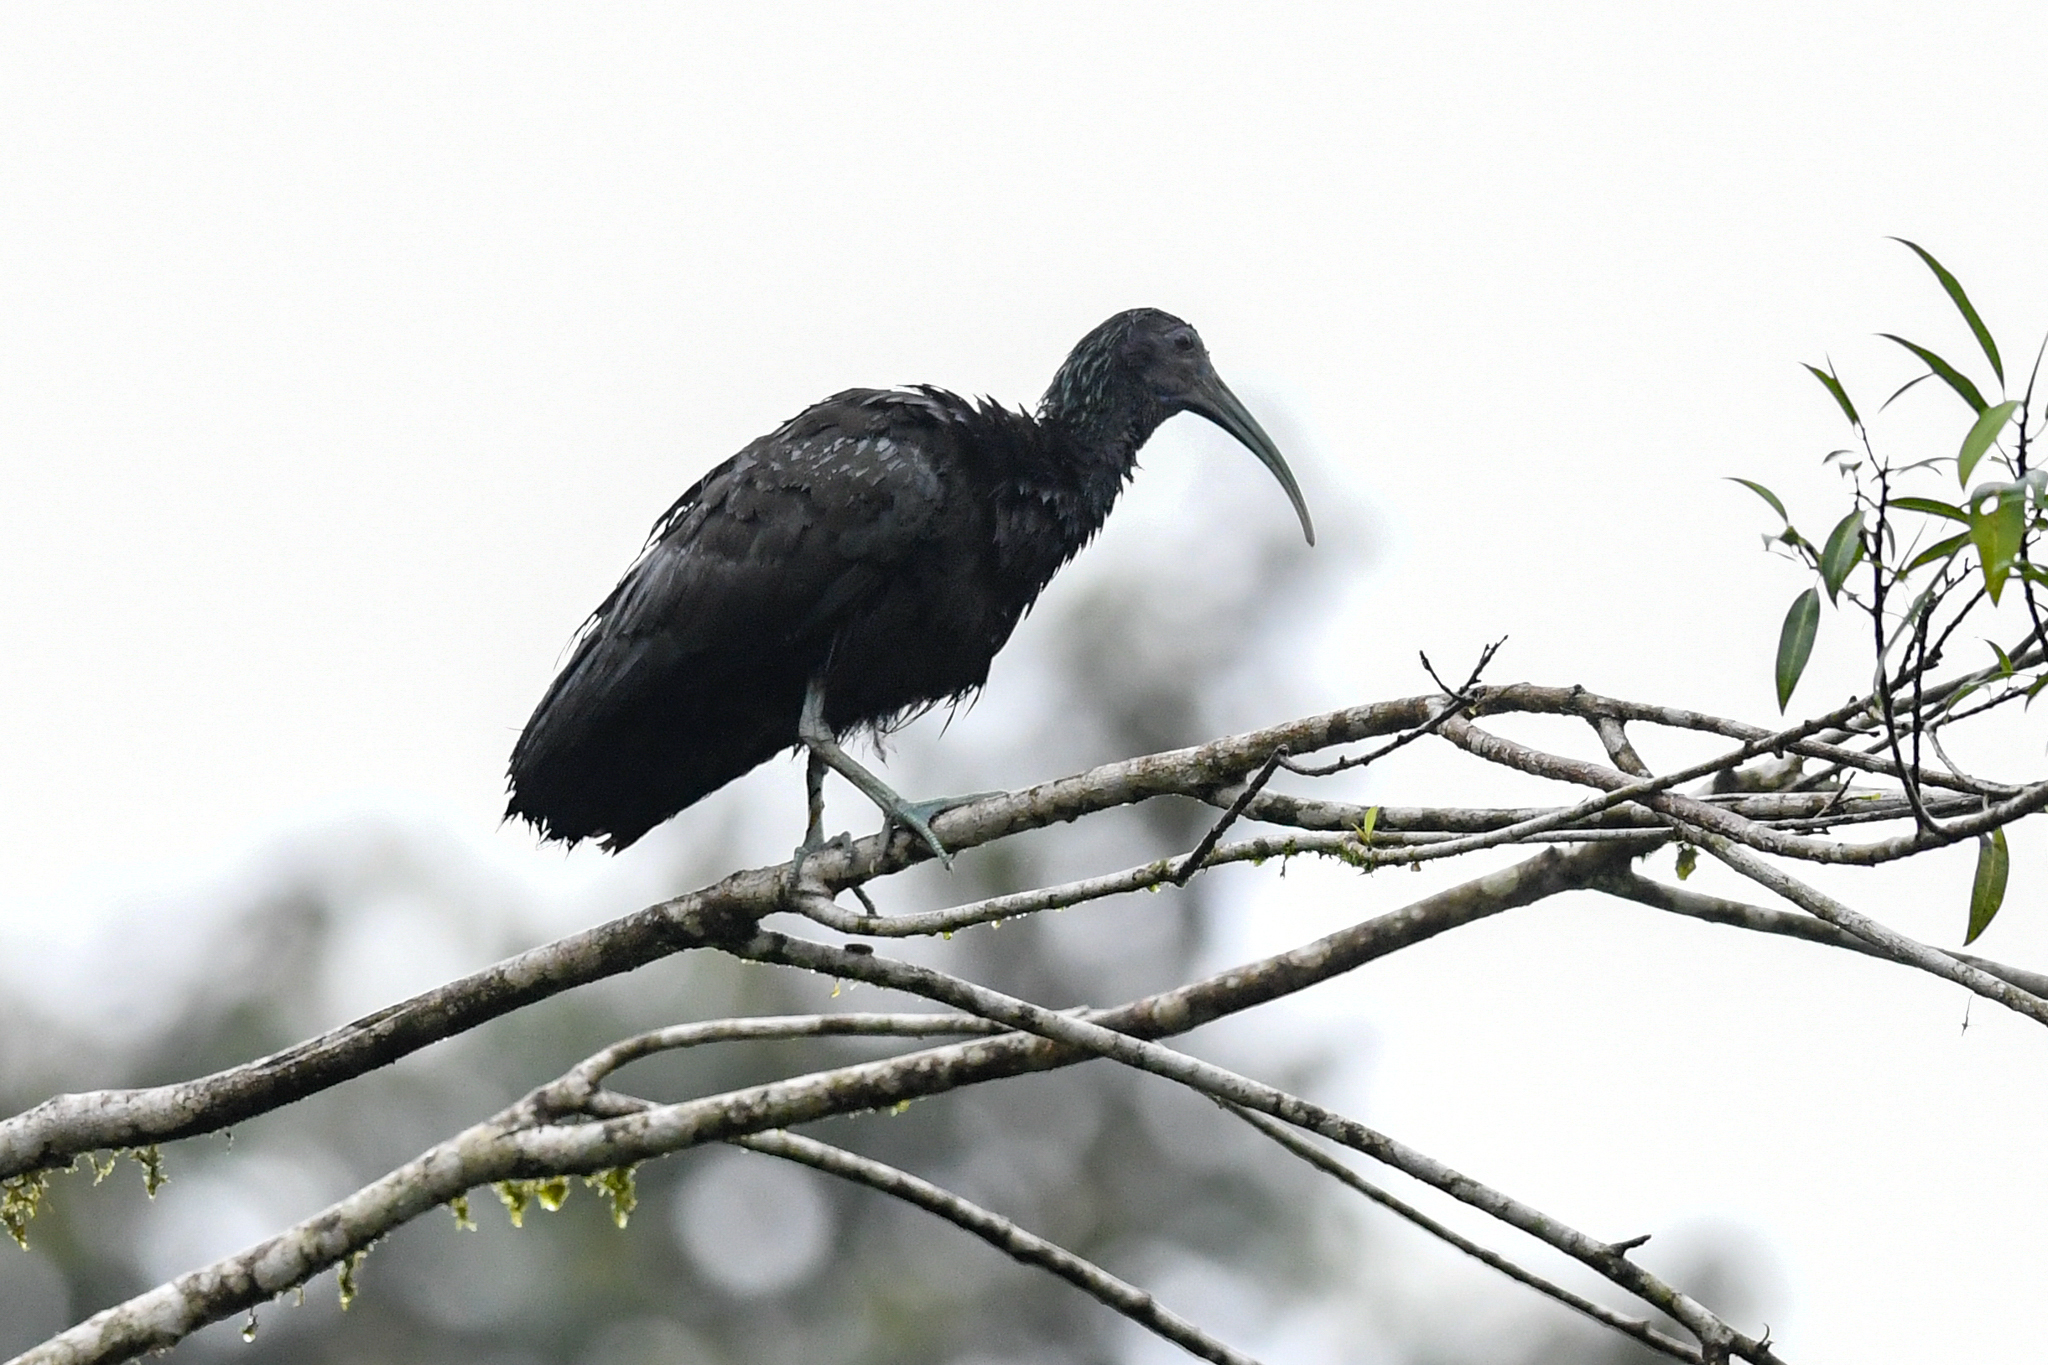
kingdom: Animalia
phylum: Chordata
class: Aves
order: Pelecaniformes
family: Threskiornithidae
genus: Mesembrinibis
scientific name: Mesembrinibis cayennensis
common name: Green ibis
